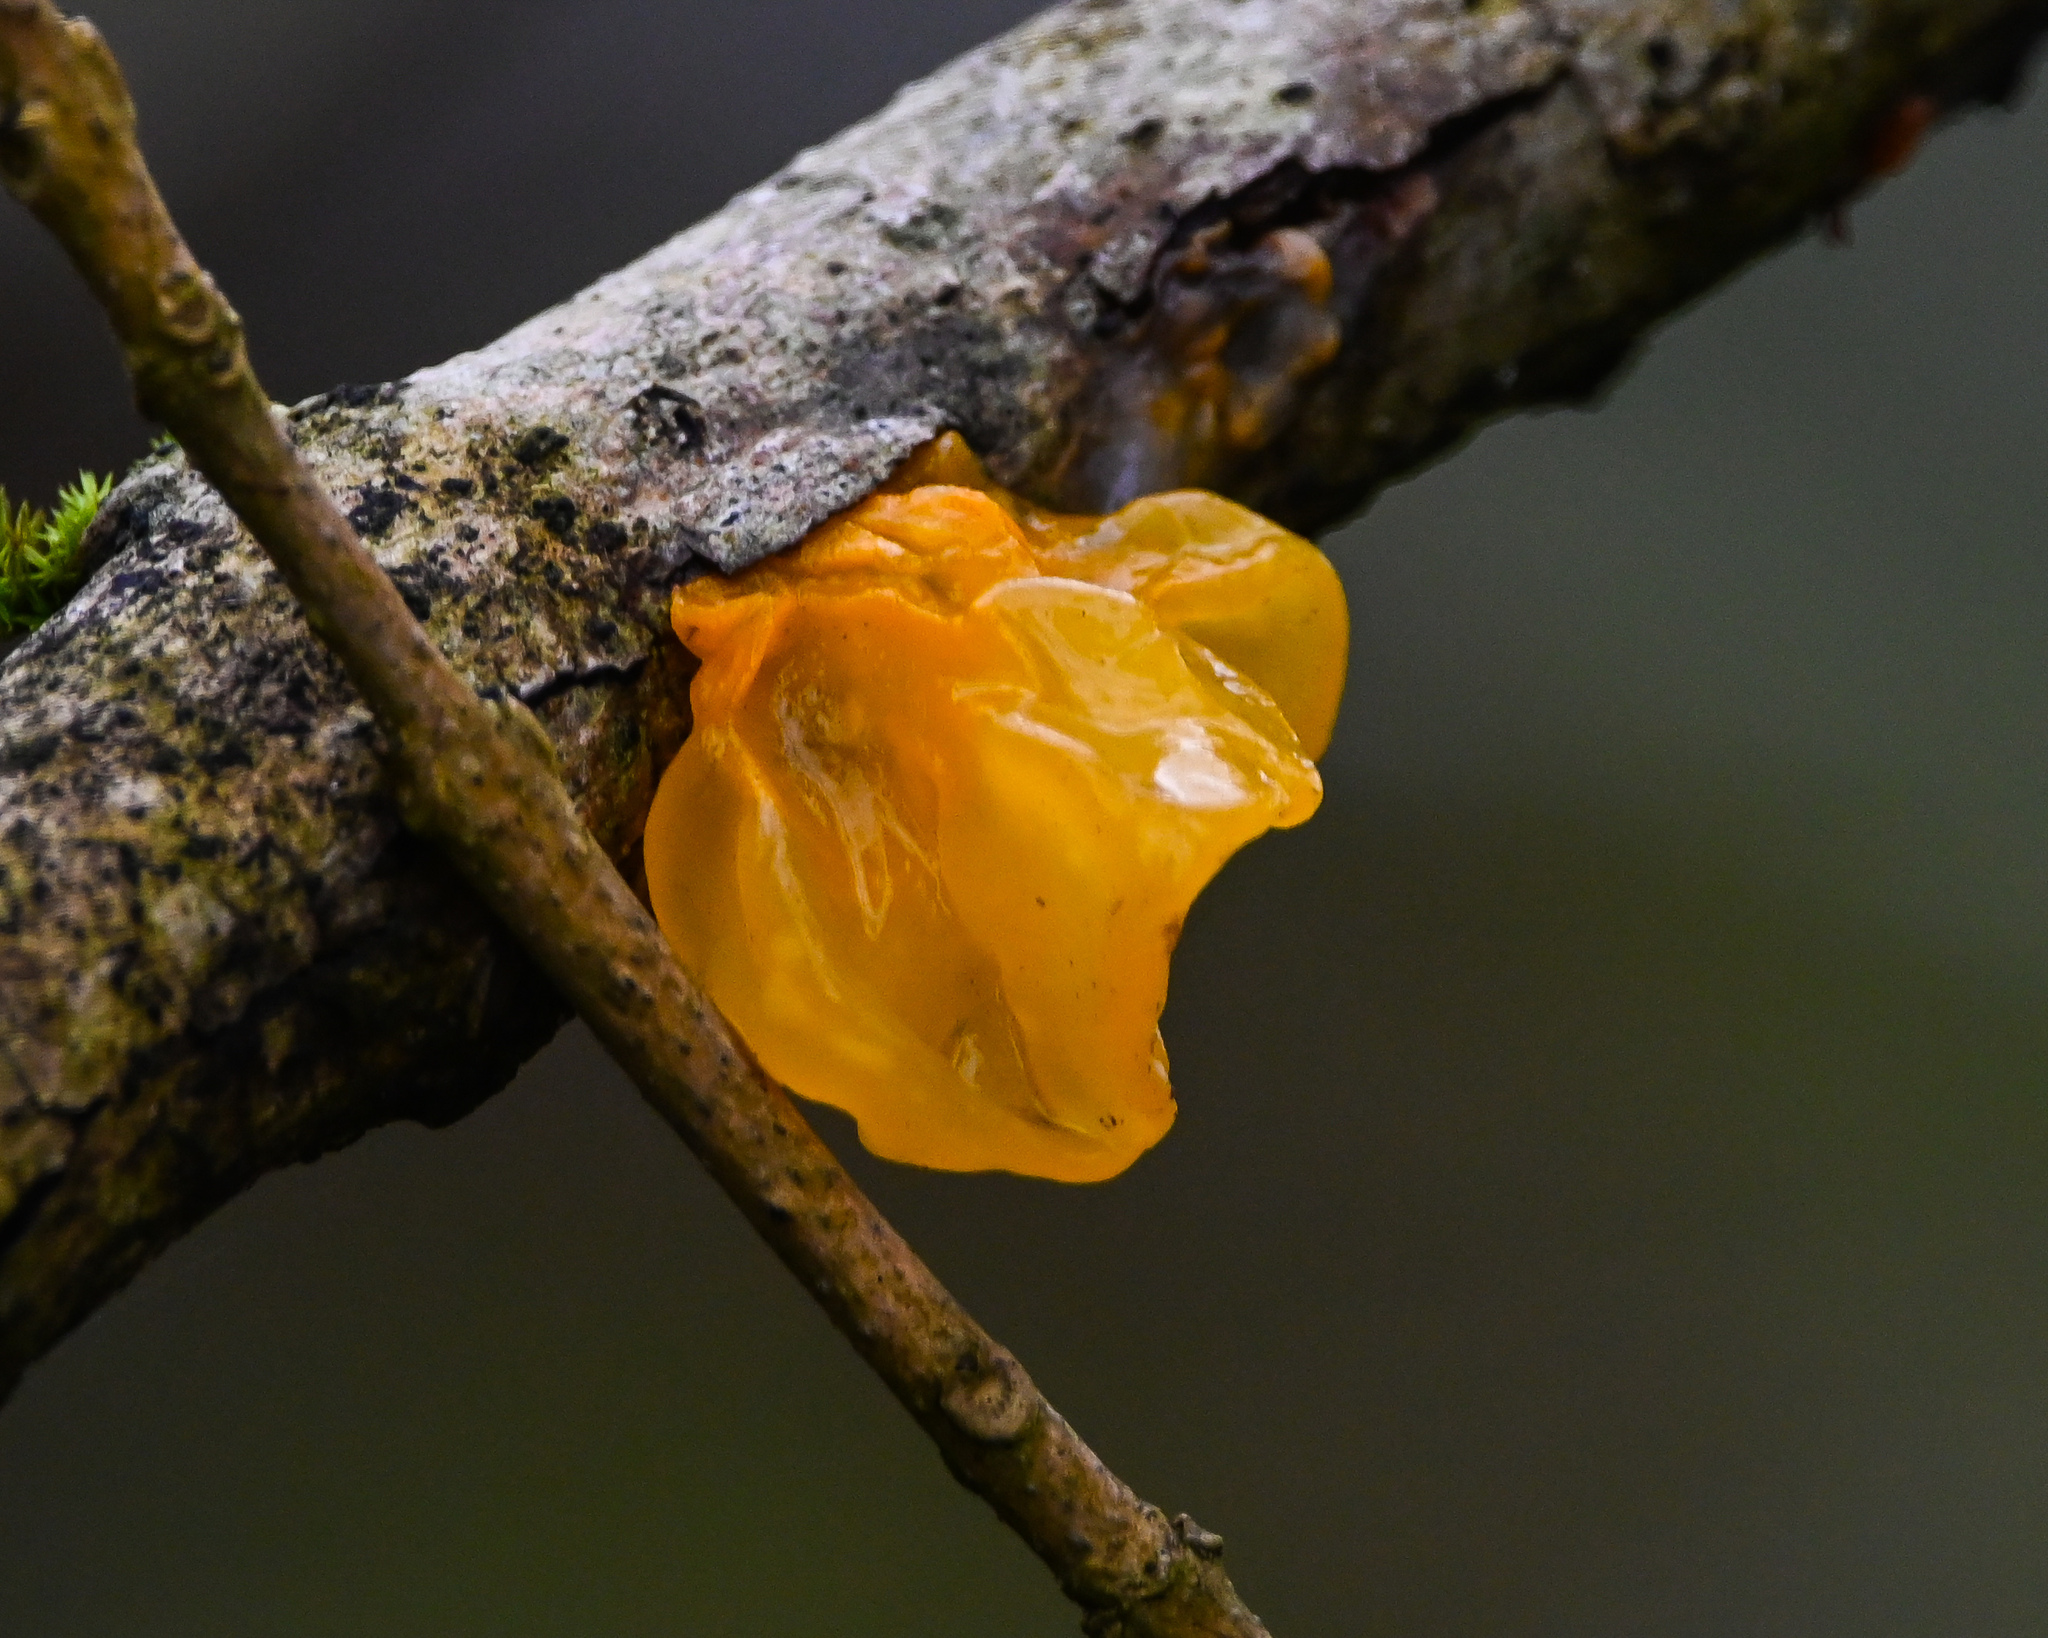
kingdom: Fungi
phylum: Basidiomycota
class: Tremellomycetes
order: Tremellales
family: Tremellaceae
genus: Tremella
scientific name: Tremella mesenterica
